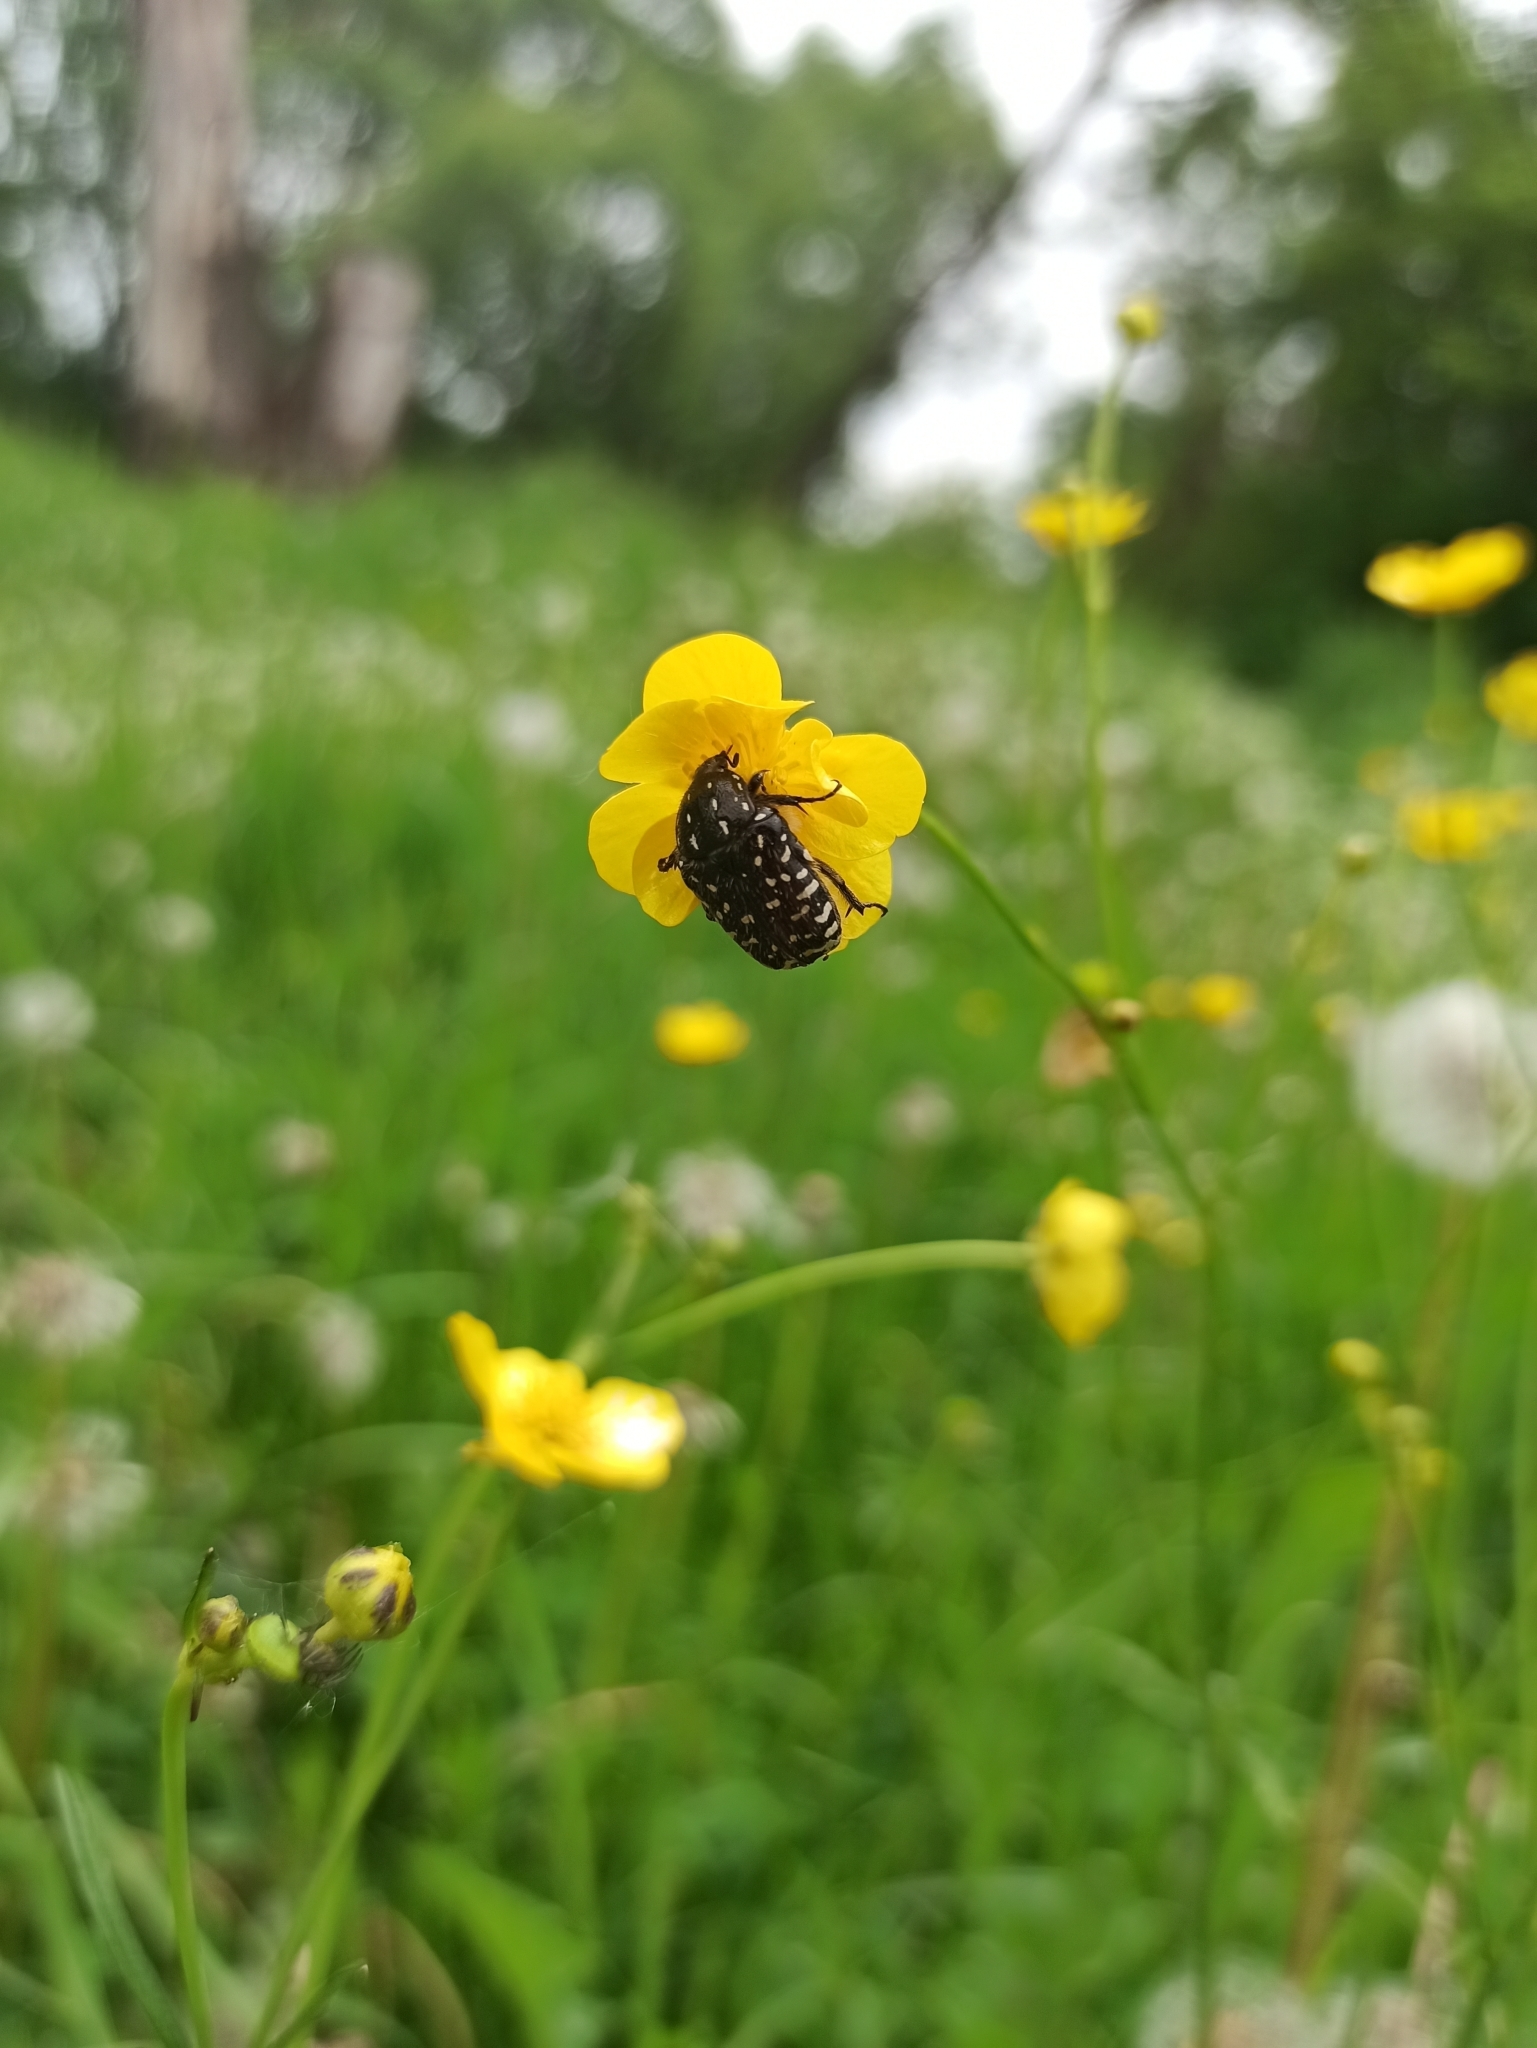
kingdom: Animalia
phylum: Arthropoda
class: Insecta
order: Coleoptera
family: Scarabaeidae
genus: Oxythyrea
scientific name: Oxythyrea funesta
